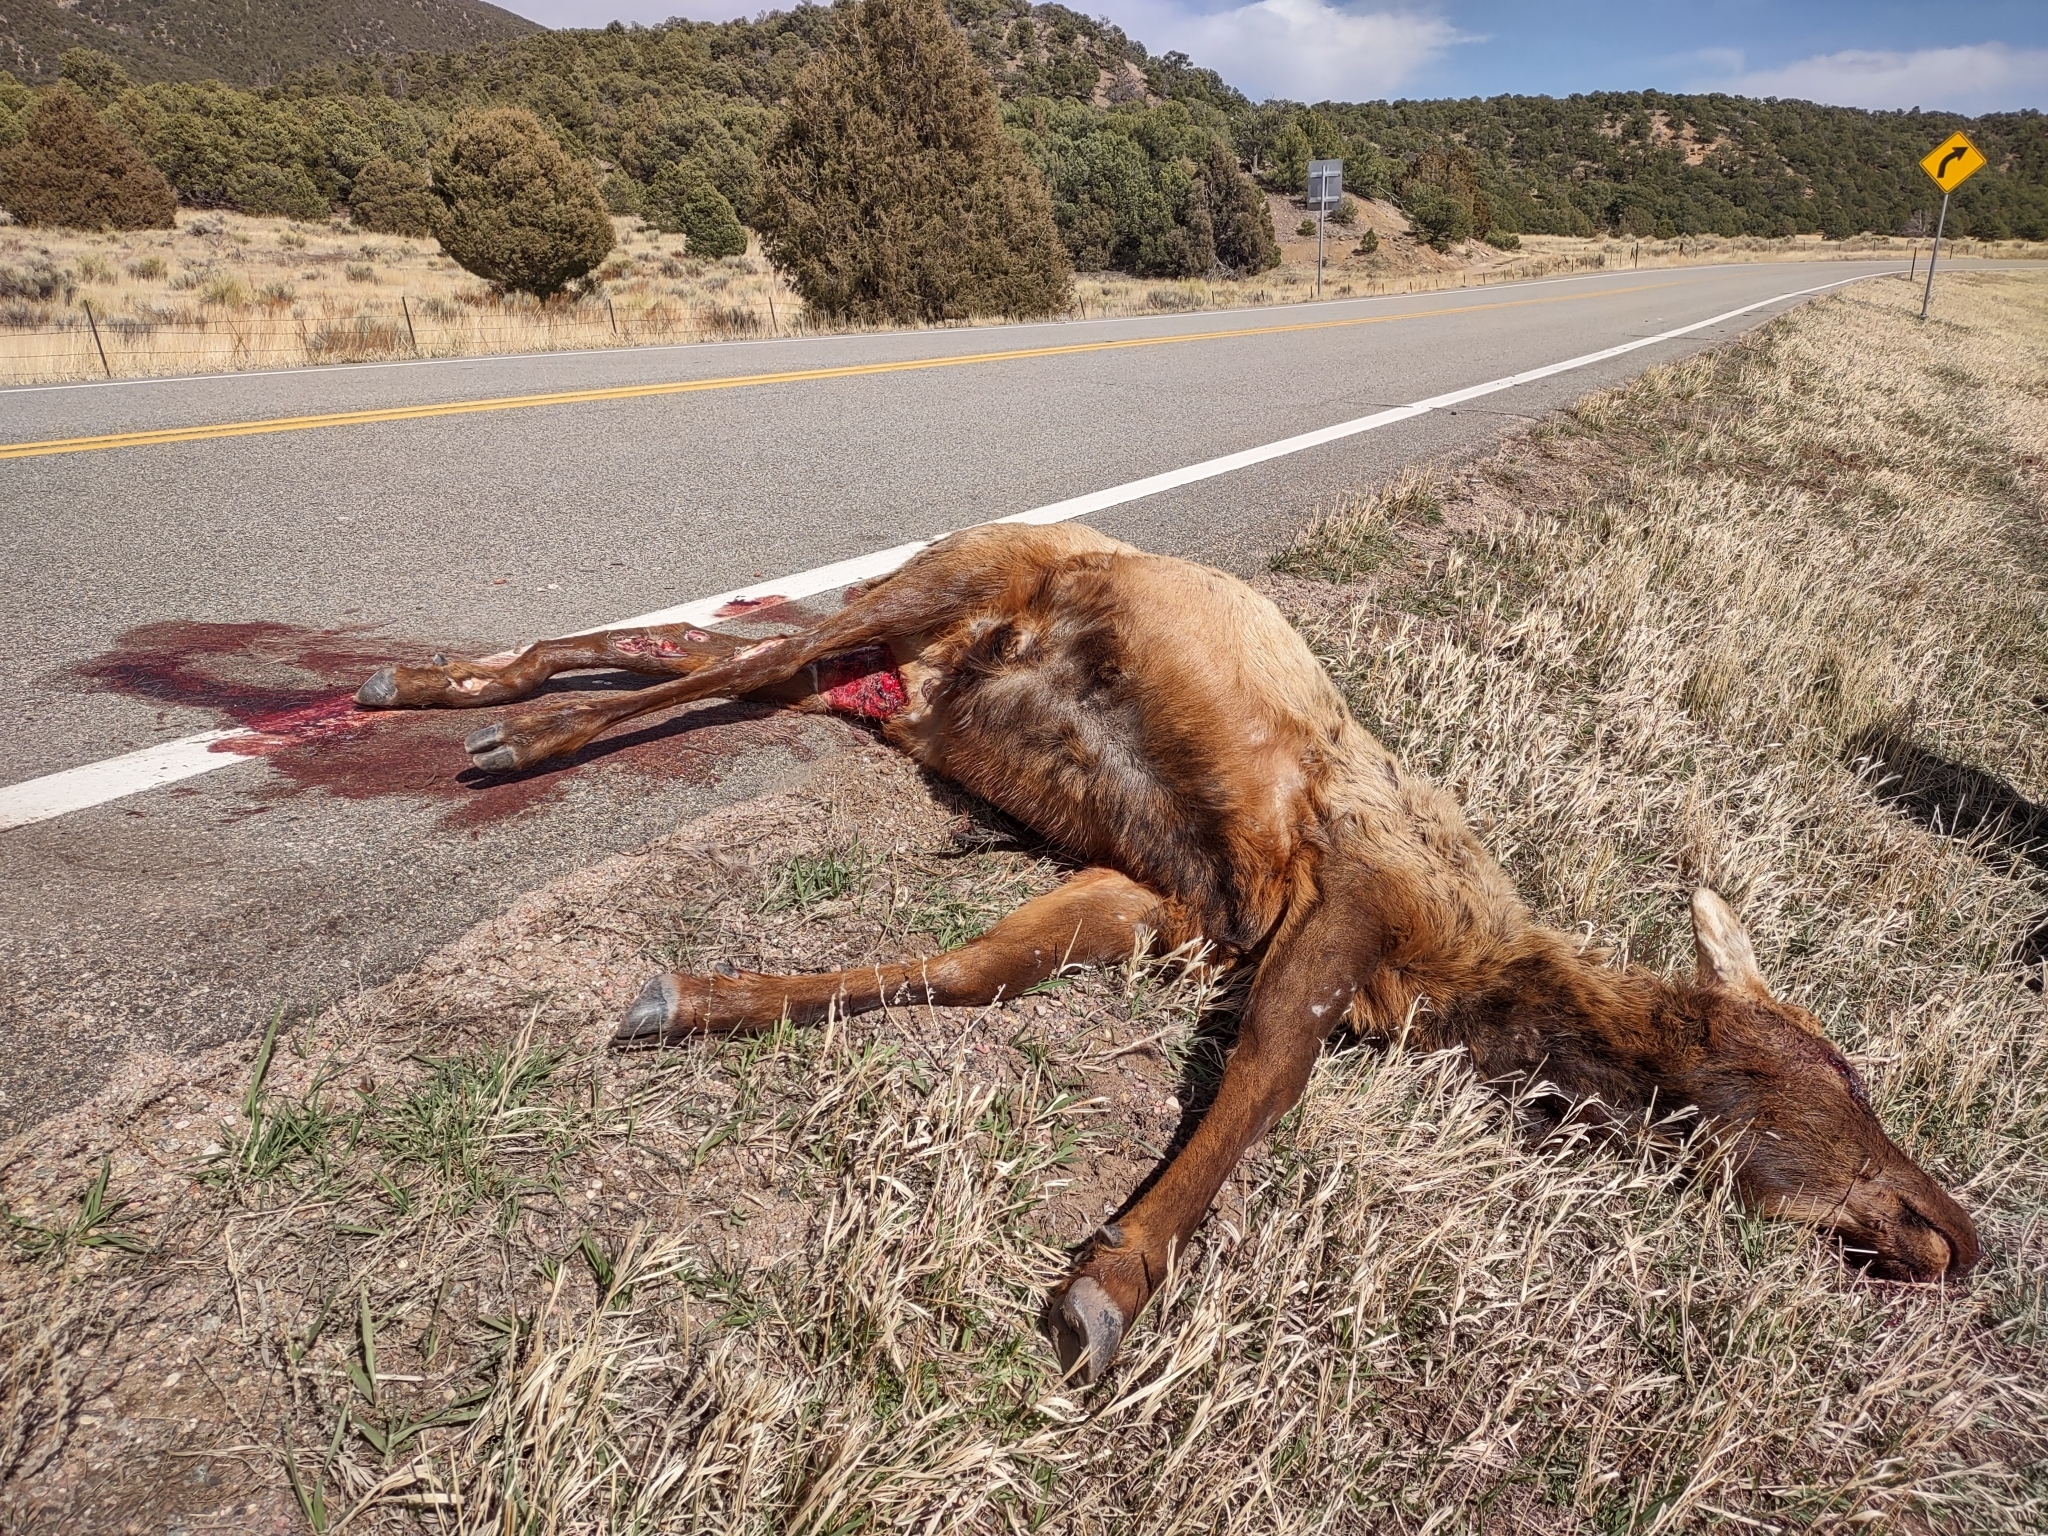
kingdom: Animalia
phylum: Chordata
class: Mammalia
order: Artiodactyla
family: Cervidae
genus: Cervus
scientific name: Cervus elaphus
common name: Red deer
